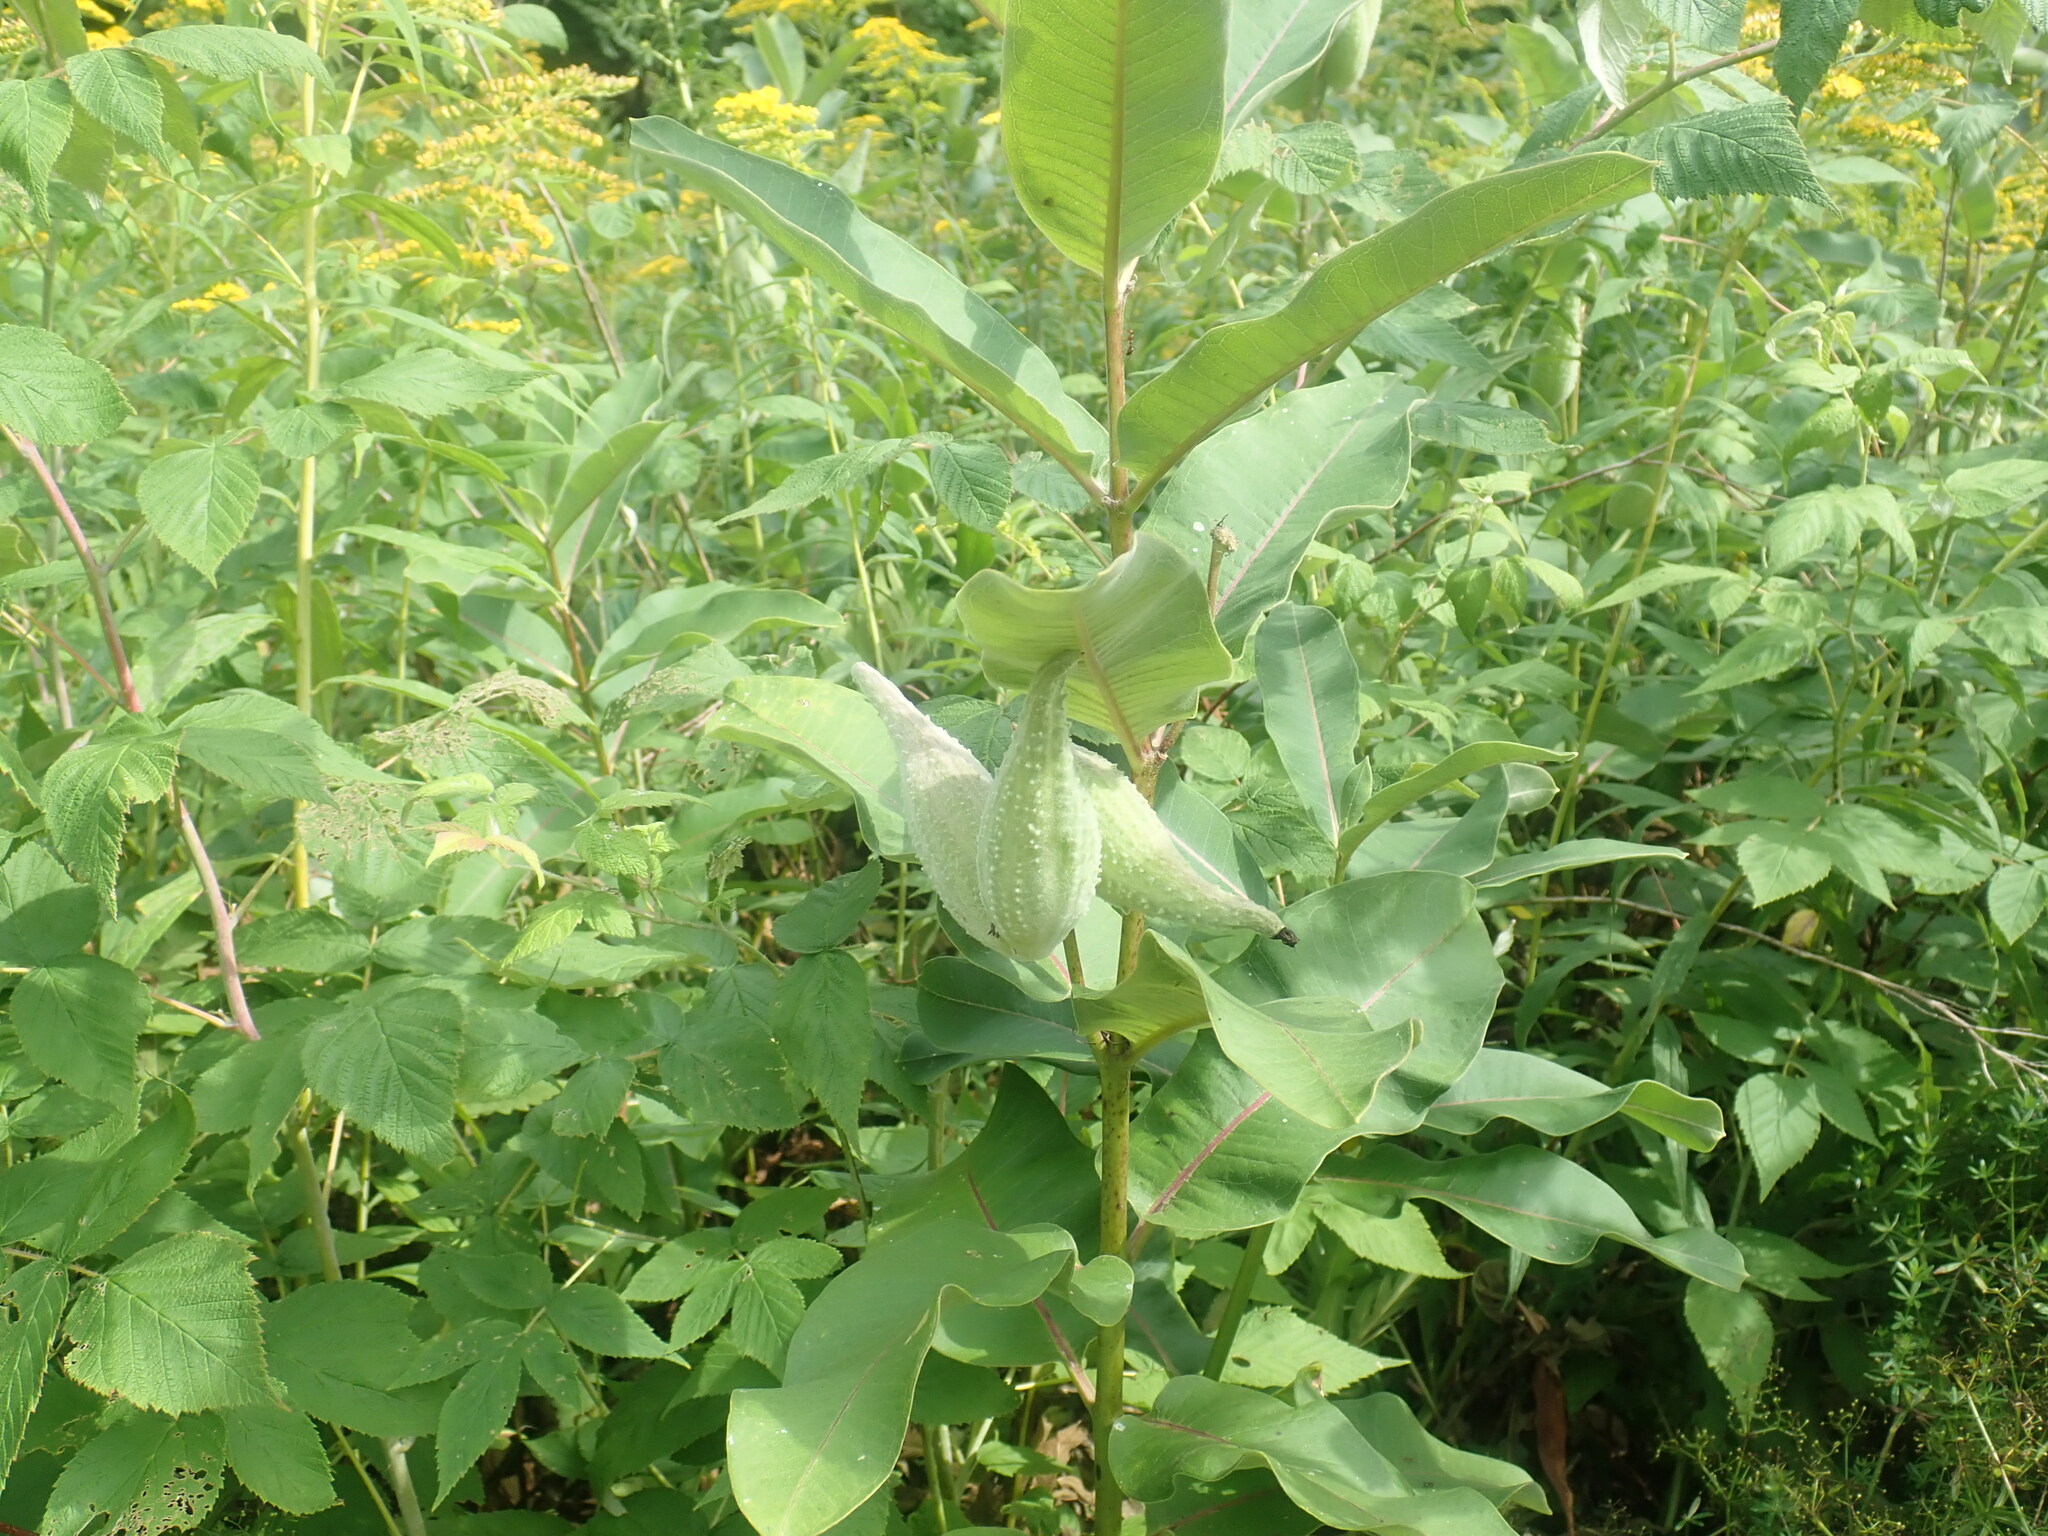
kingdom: Plantae
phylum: Tracheophyta
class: Magnoliopsida
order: Gentianales
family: Apocynaceae
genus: Asclepias
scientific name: Asclepias syriaca
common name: Common milkweed
